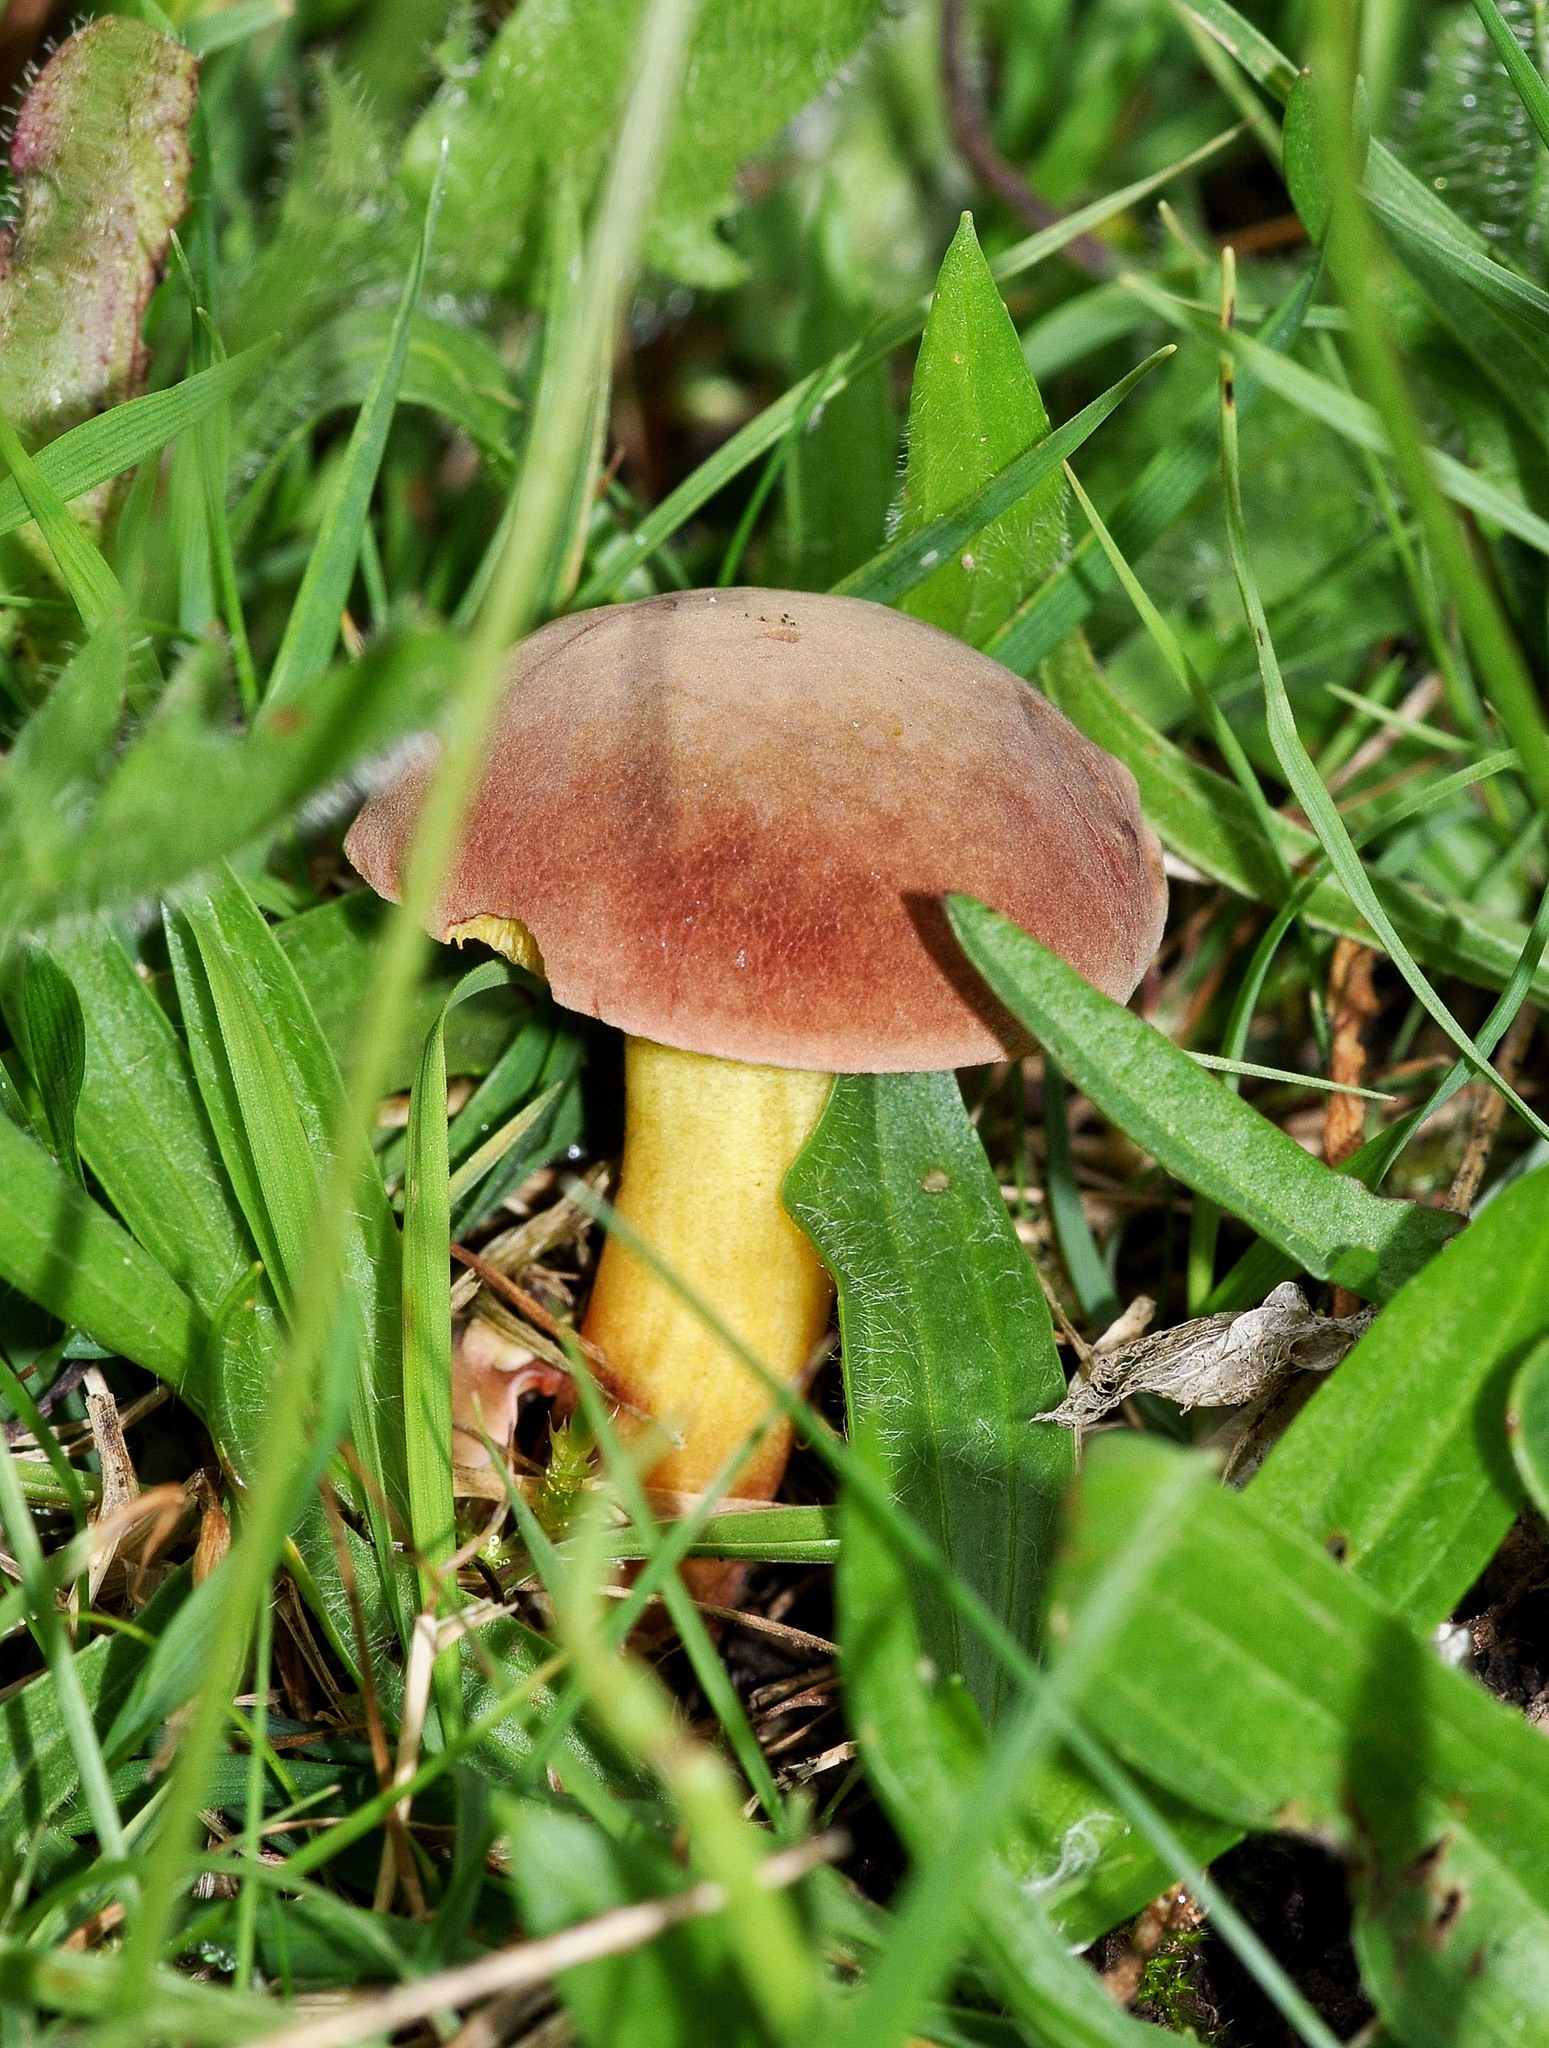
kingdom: Fungi
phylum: Basidiomycota
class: Agaricomycetes
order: Agaricales
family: Tricholomataceae
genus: Tricholomopsis
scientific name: Tricholomopsis rutilans
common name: Plums and custard
